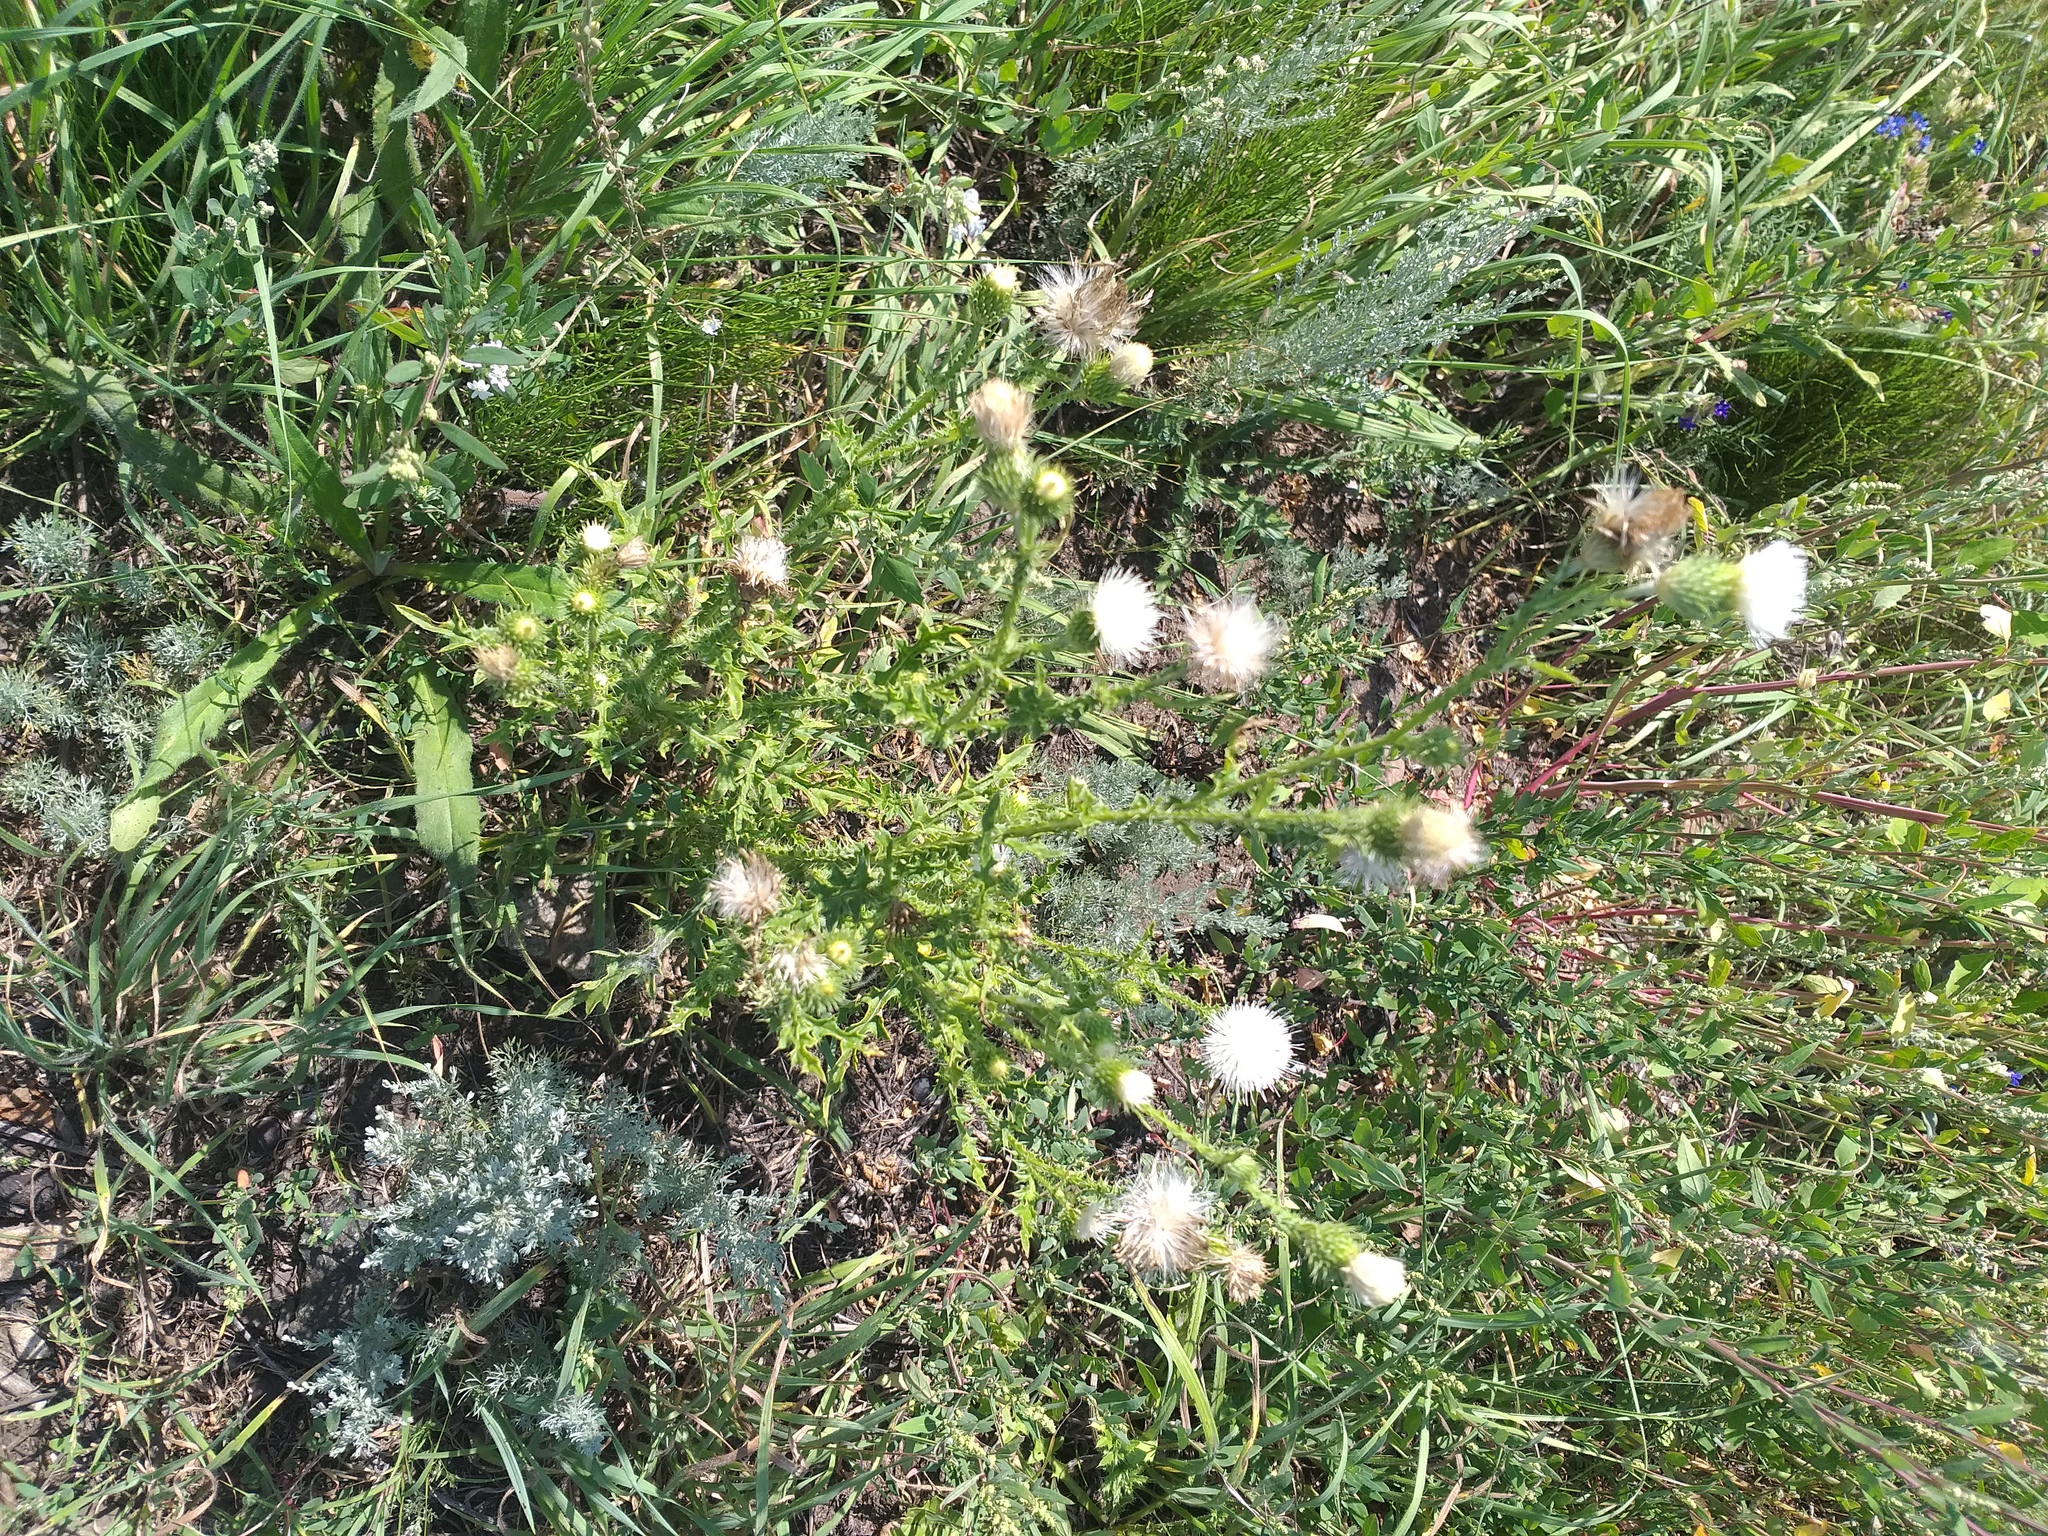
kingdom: Plantae
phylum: Tracheophyta
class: Magnoliopsida
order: Asterales
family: Asteraceae
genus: Carduus
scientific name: Carduus acanthoides
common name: Plumeless thistle
